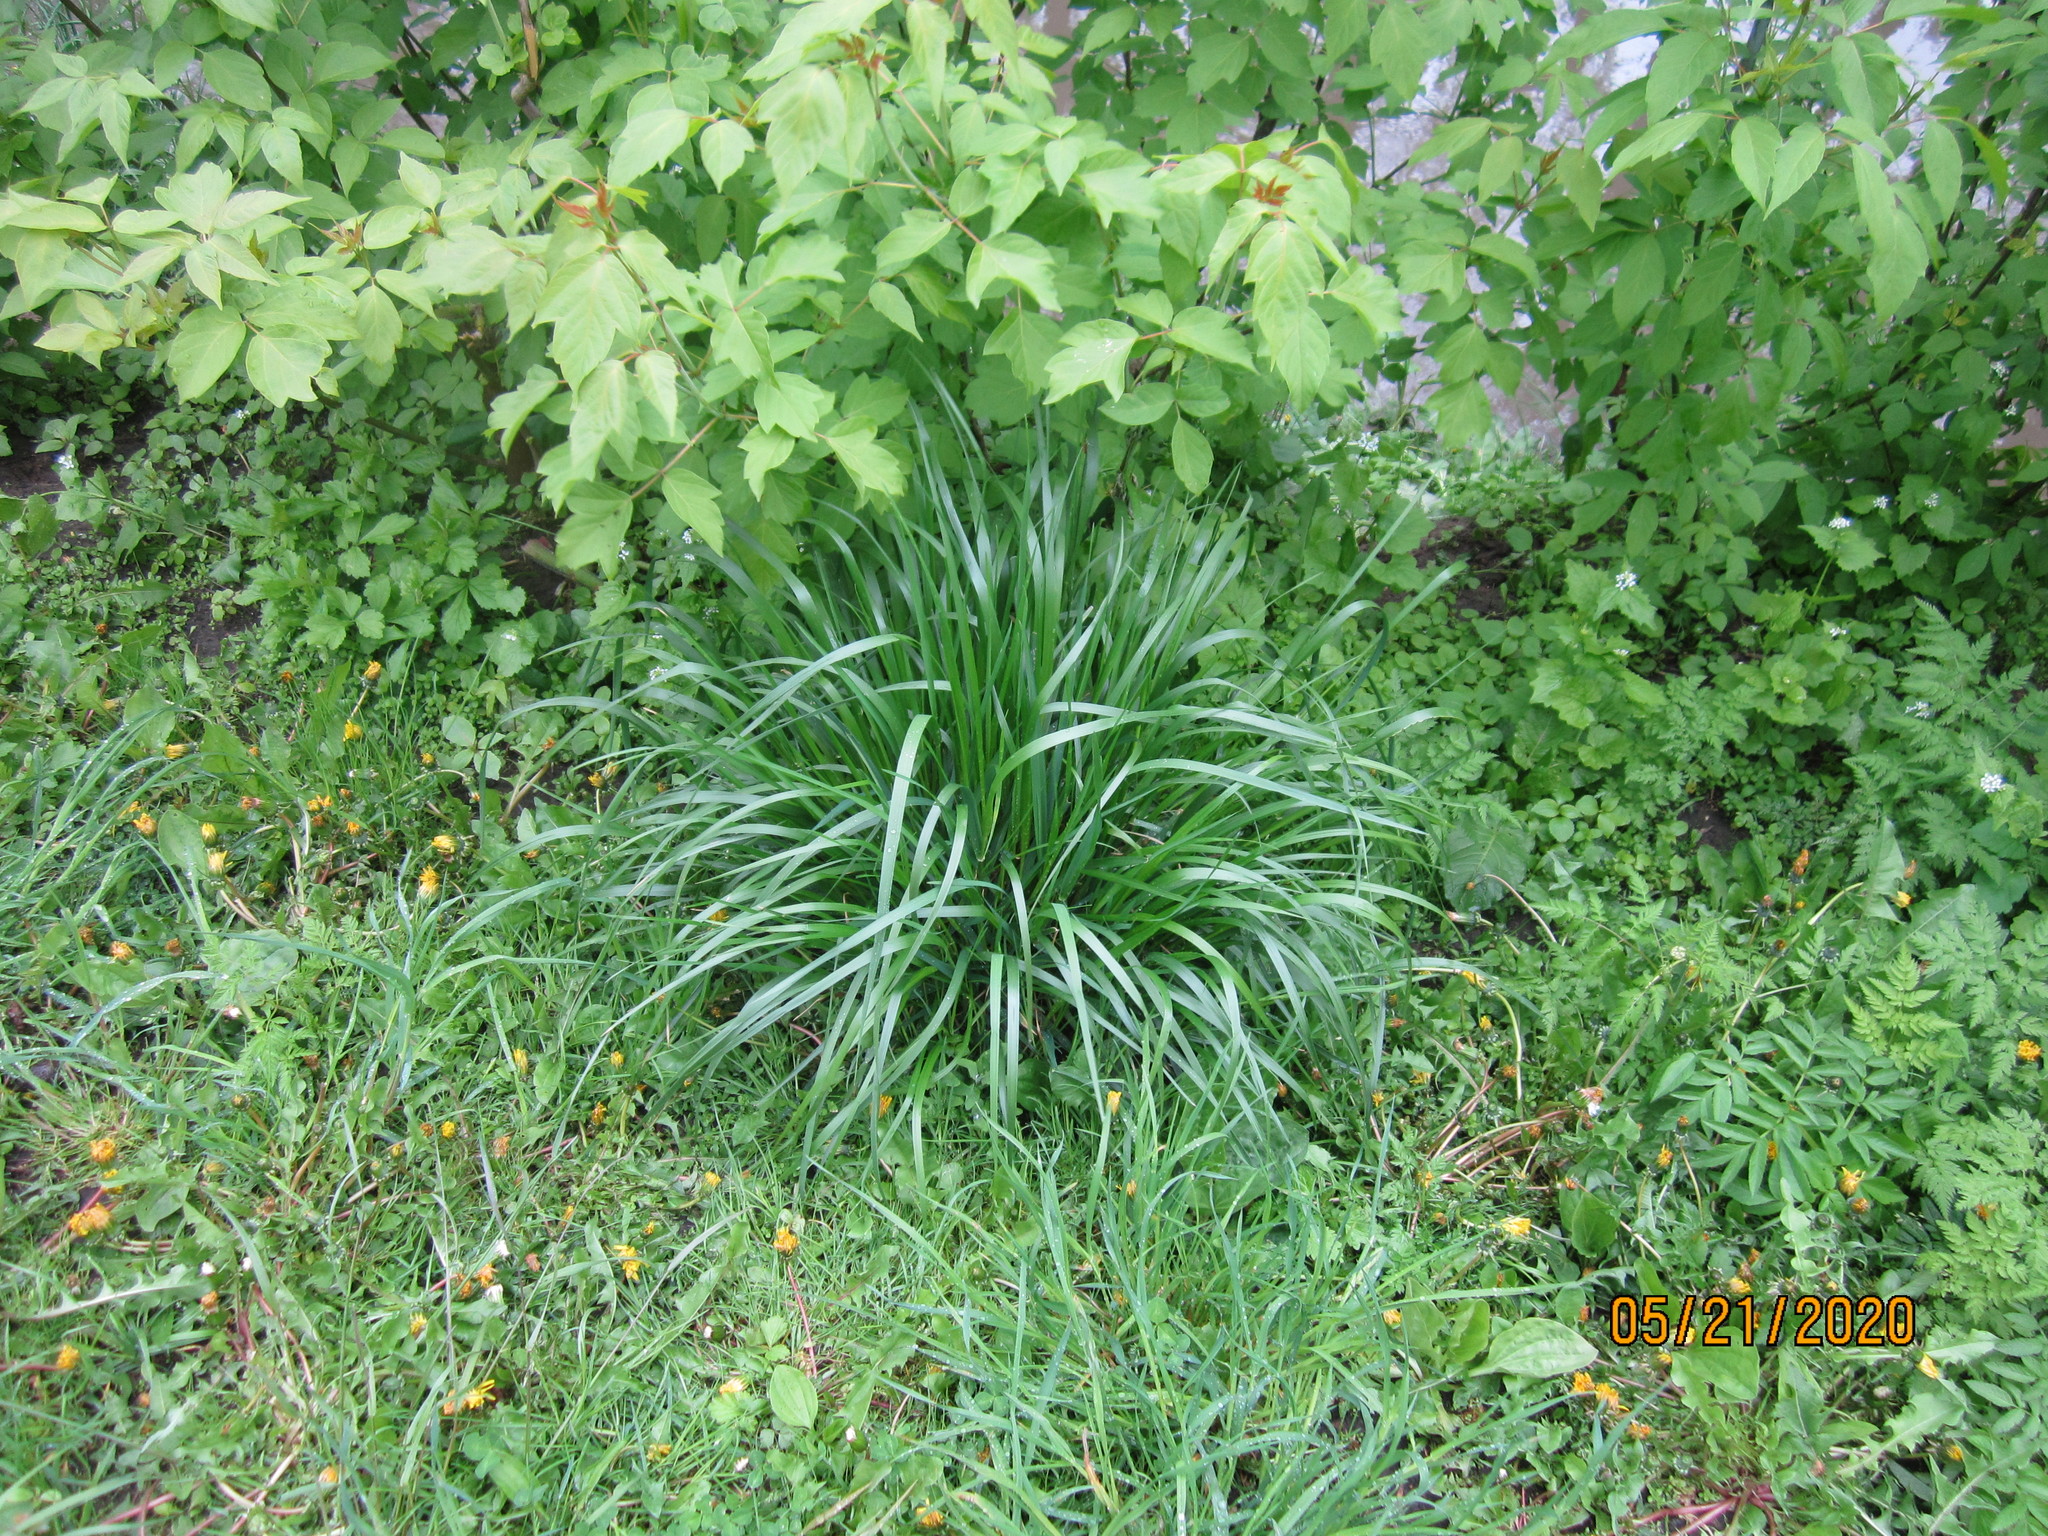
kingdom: Plantae
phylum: Tracheophyta
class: Liliopsida
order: Poales
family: Poaceae
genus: Lolium
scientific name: Lolium arundinaceum
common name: Reed fescue
